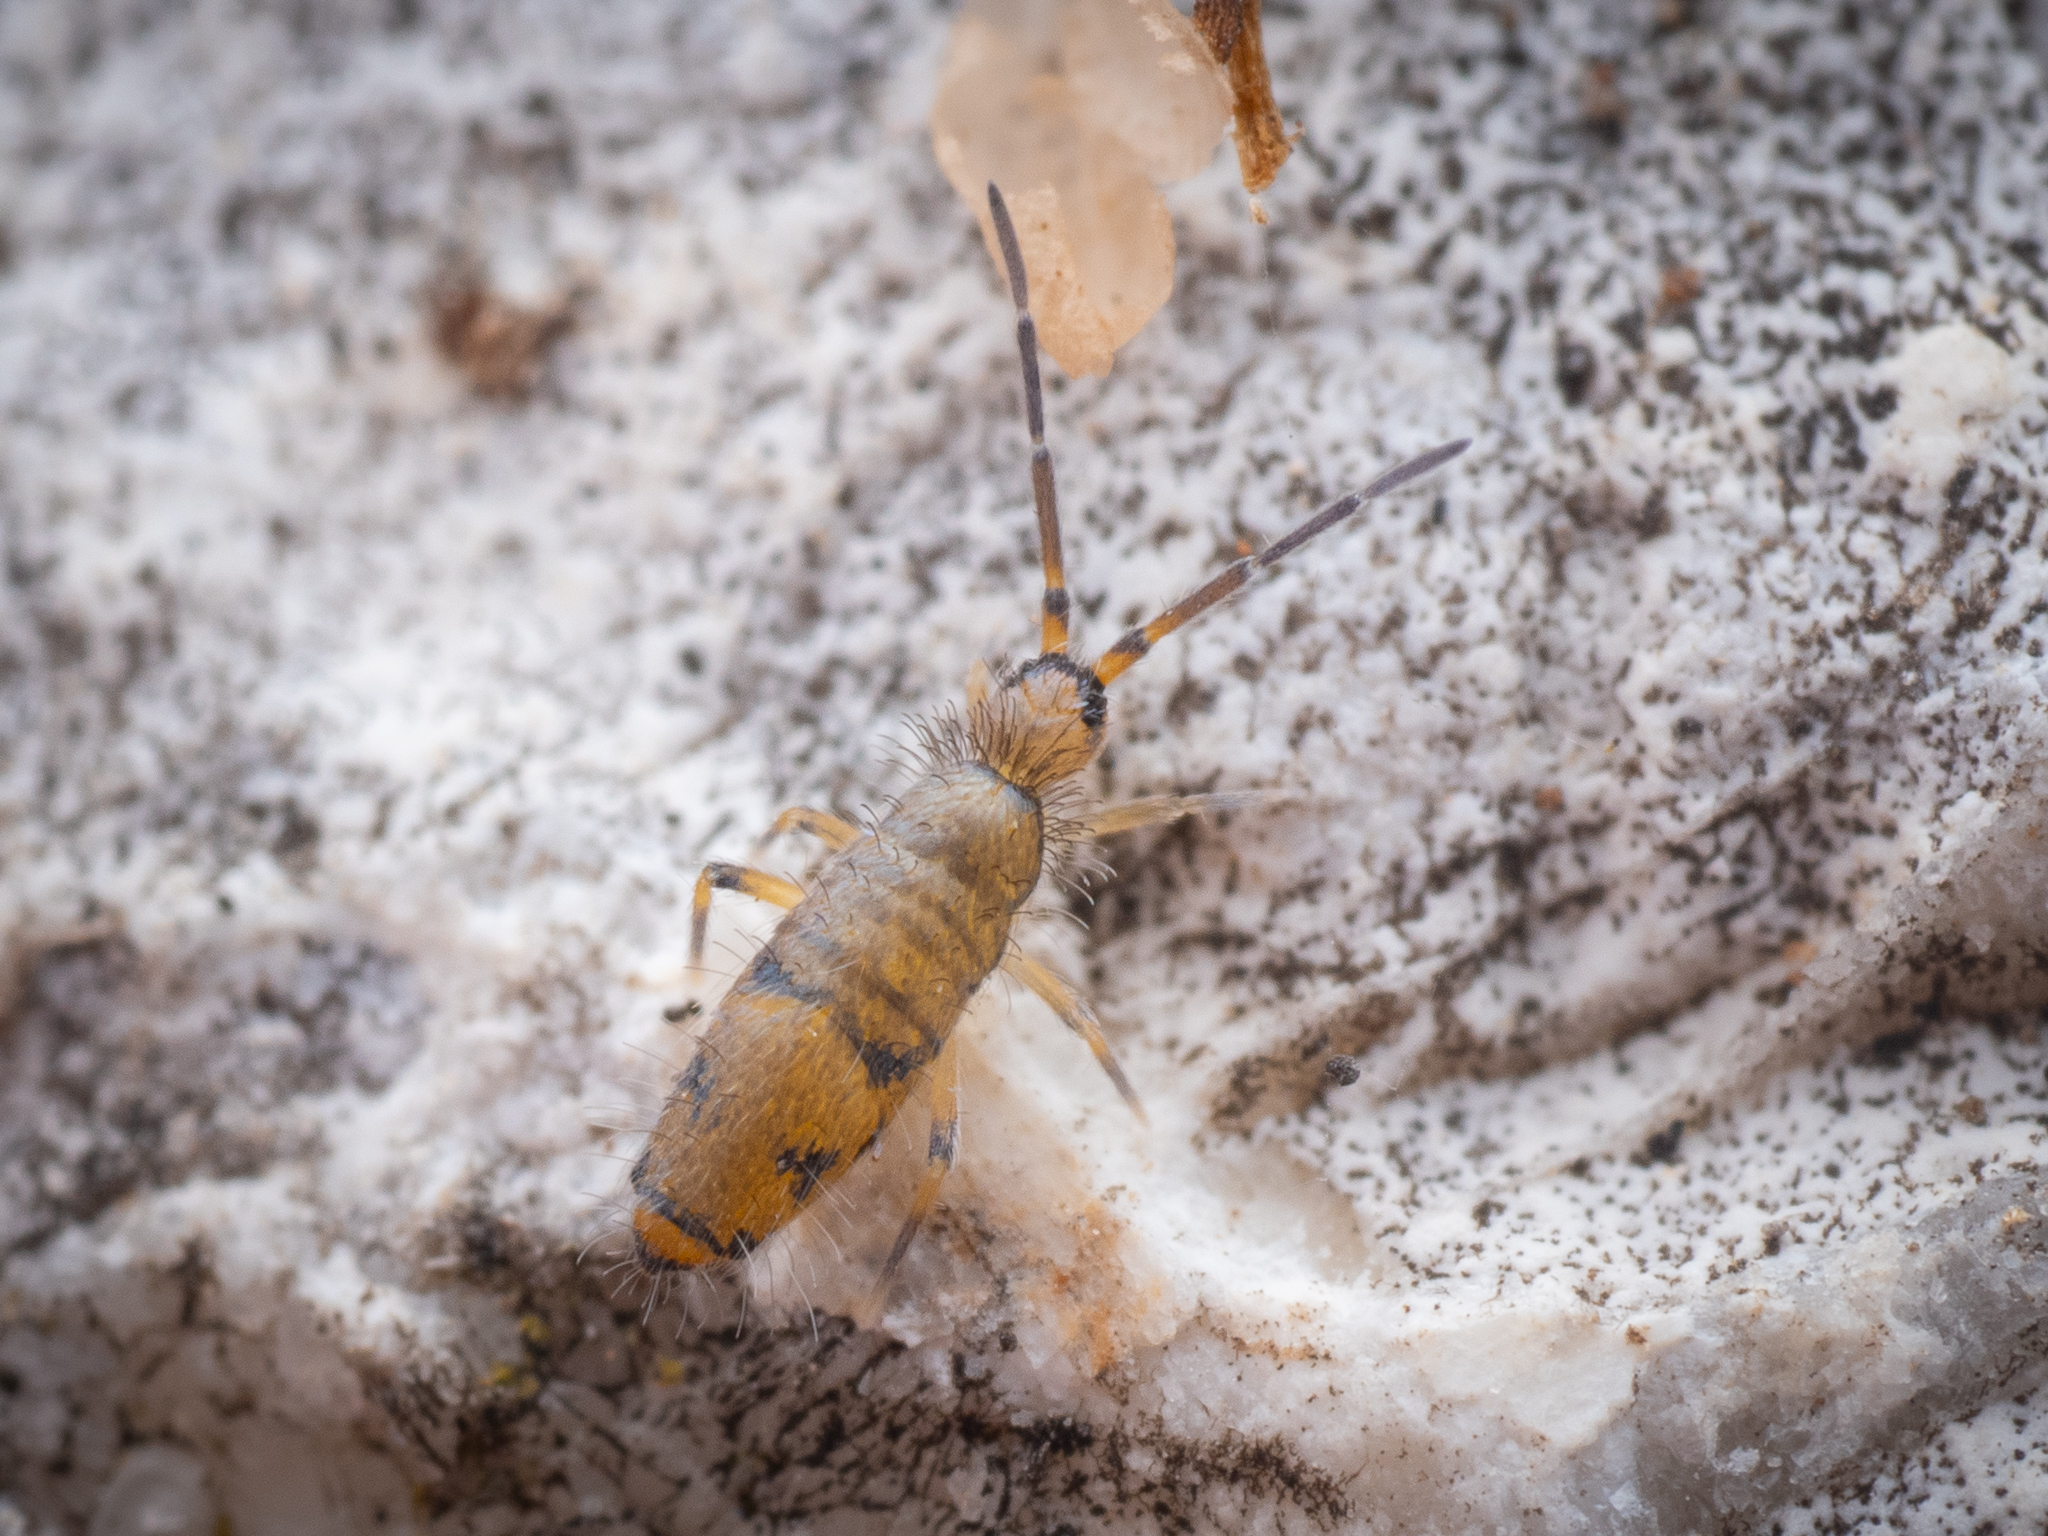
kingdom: Animalia
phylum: Arthropoda
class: Collembola
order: Entomobryomorpha
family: Entomobryidae
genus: Willowsia
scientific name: Willowsia nigromaculata
